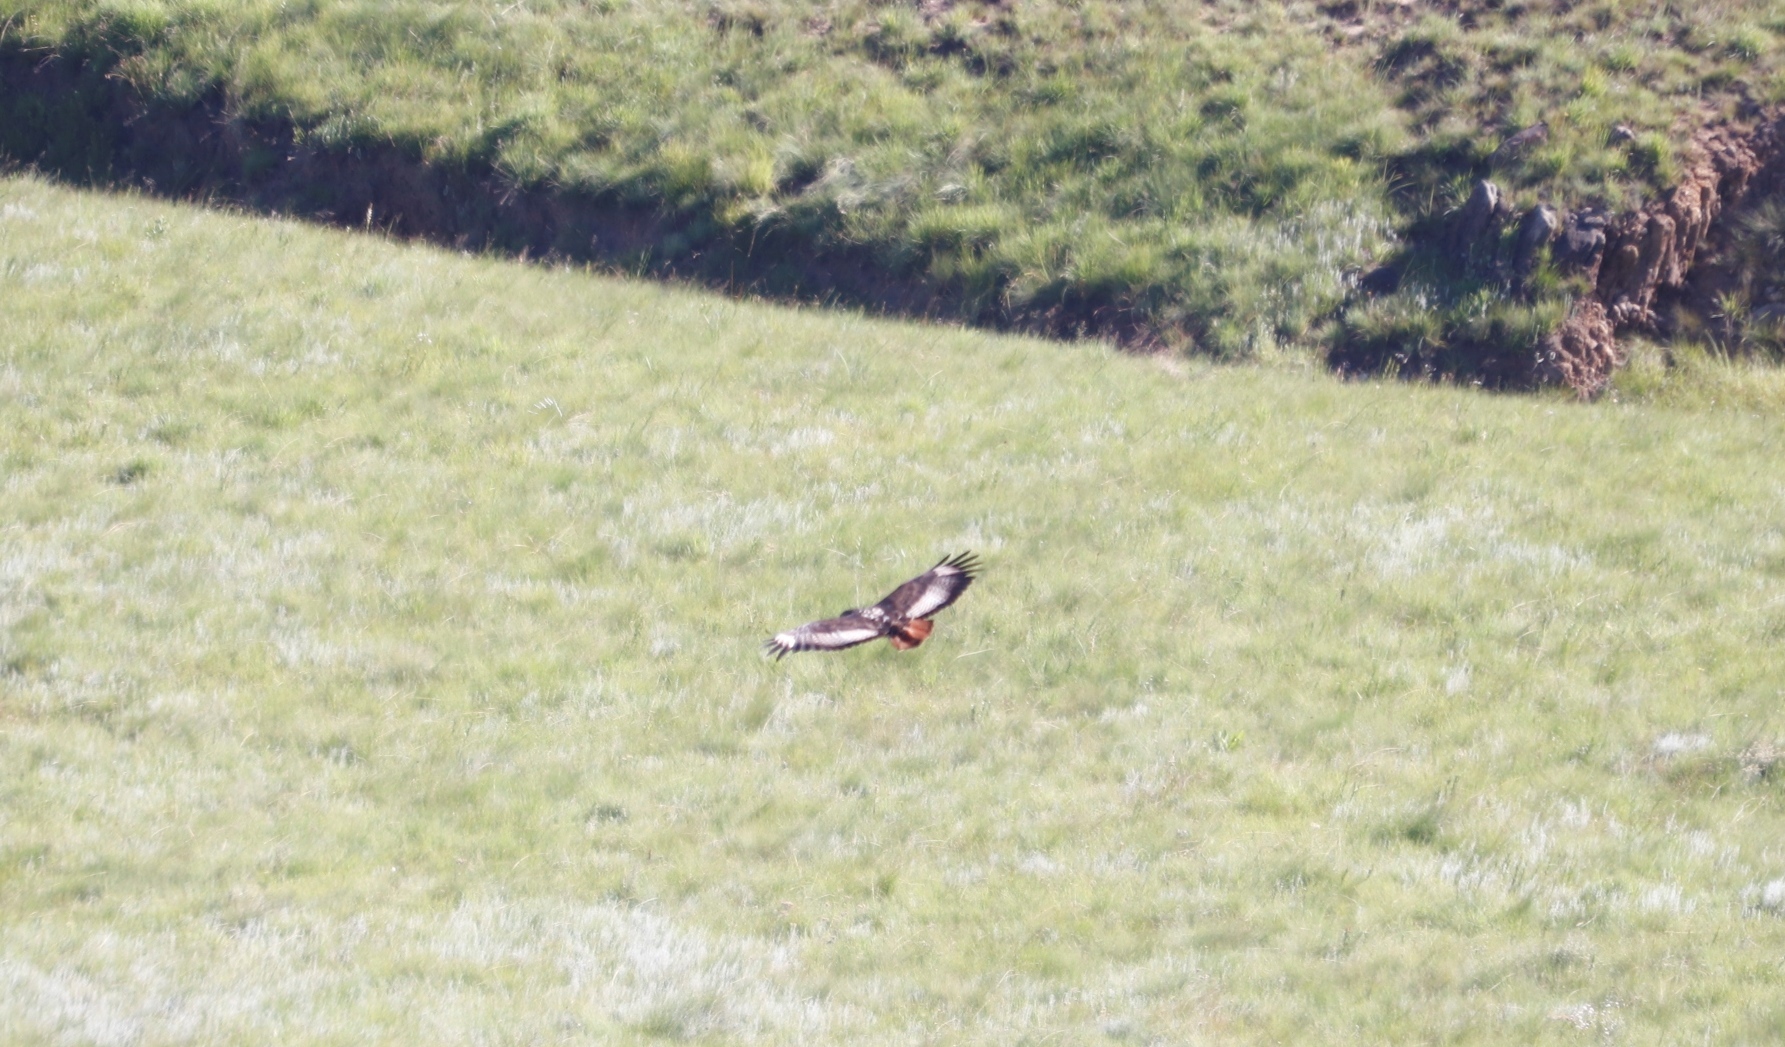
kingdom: Animalia
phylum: Chordata
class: Aves
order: Accipitriformes
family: Accipitridae
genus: Buteo
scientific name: Buteo rufofuscus
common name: Jackal buzzard
